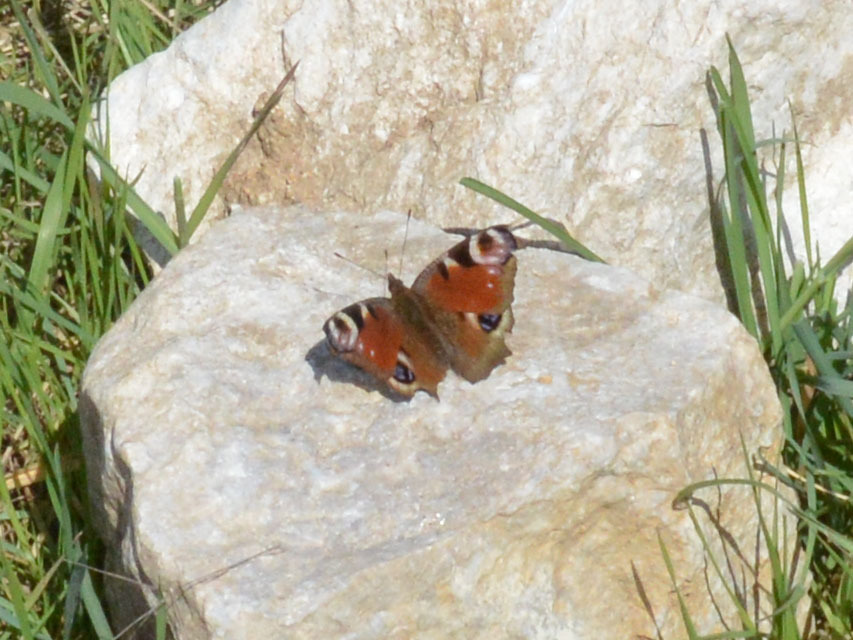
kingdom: Animalia
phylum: Arthropoda
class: Insecta
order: Lepidoptera
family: Nymphalidae
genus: Aglais
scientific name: Aglais io
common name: Peacock
